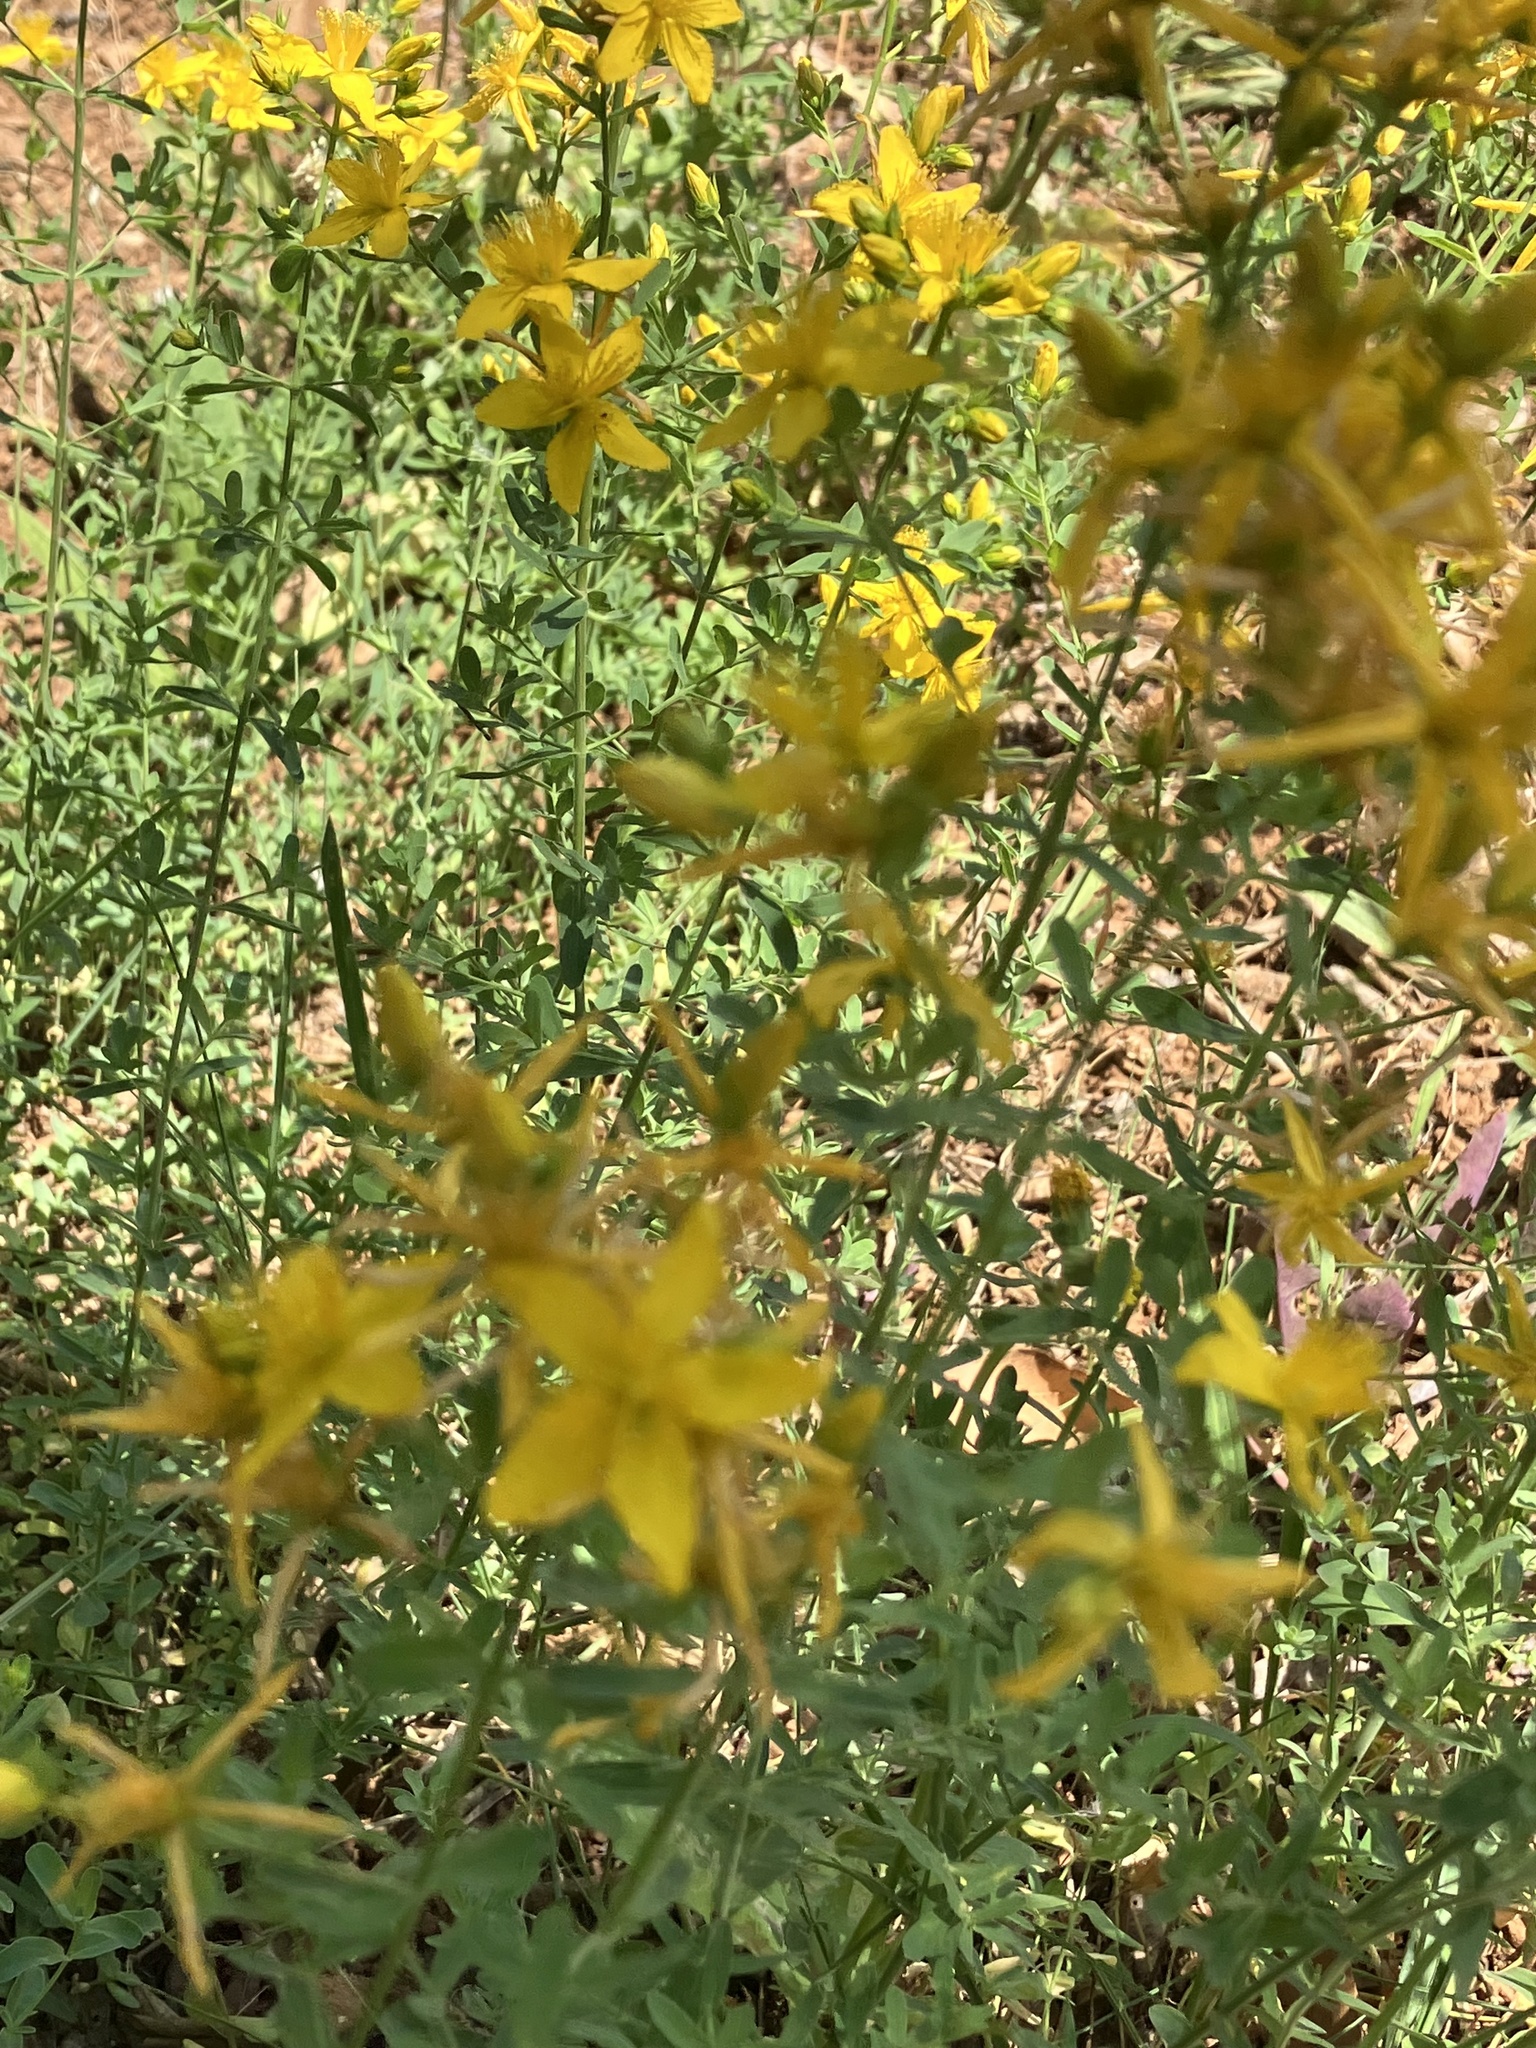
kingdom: Plantae
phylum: Tracheophyta
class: Magnoliopsida
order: Malpighiales
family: Hypericaceae
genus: Hypericum
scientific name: Hypericum perforatum
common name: Common st. johnswort
